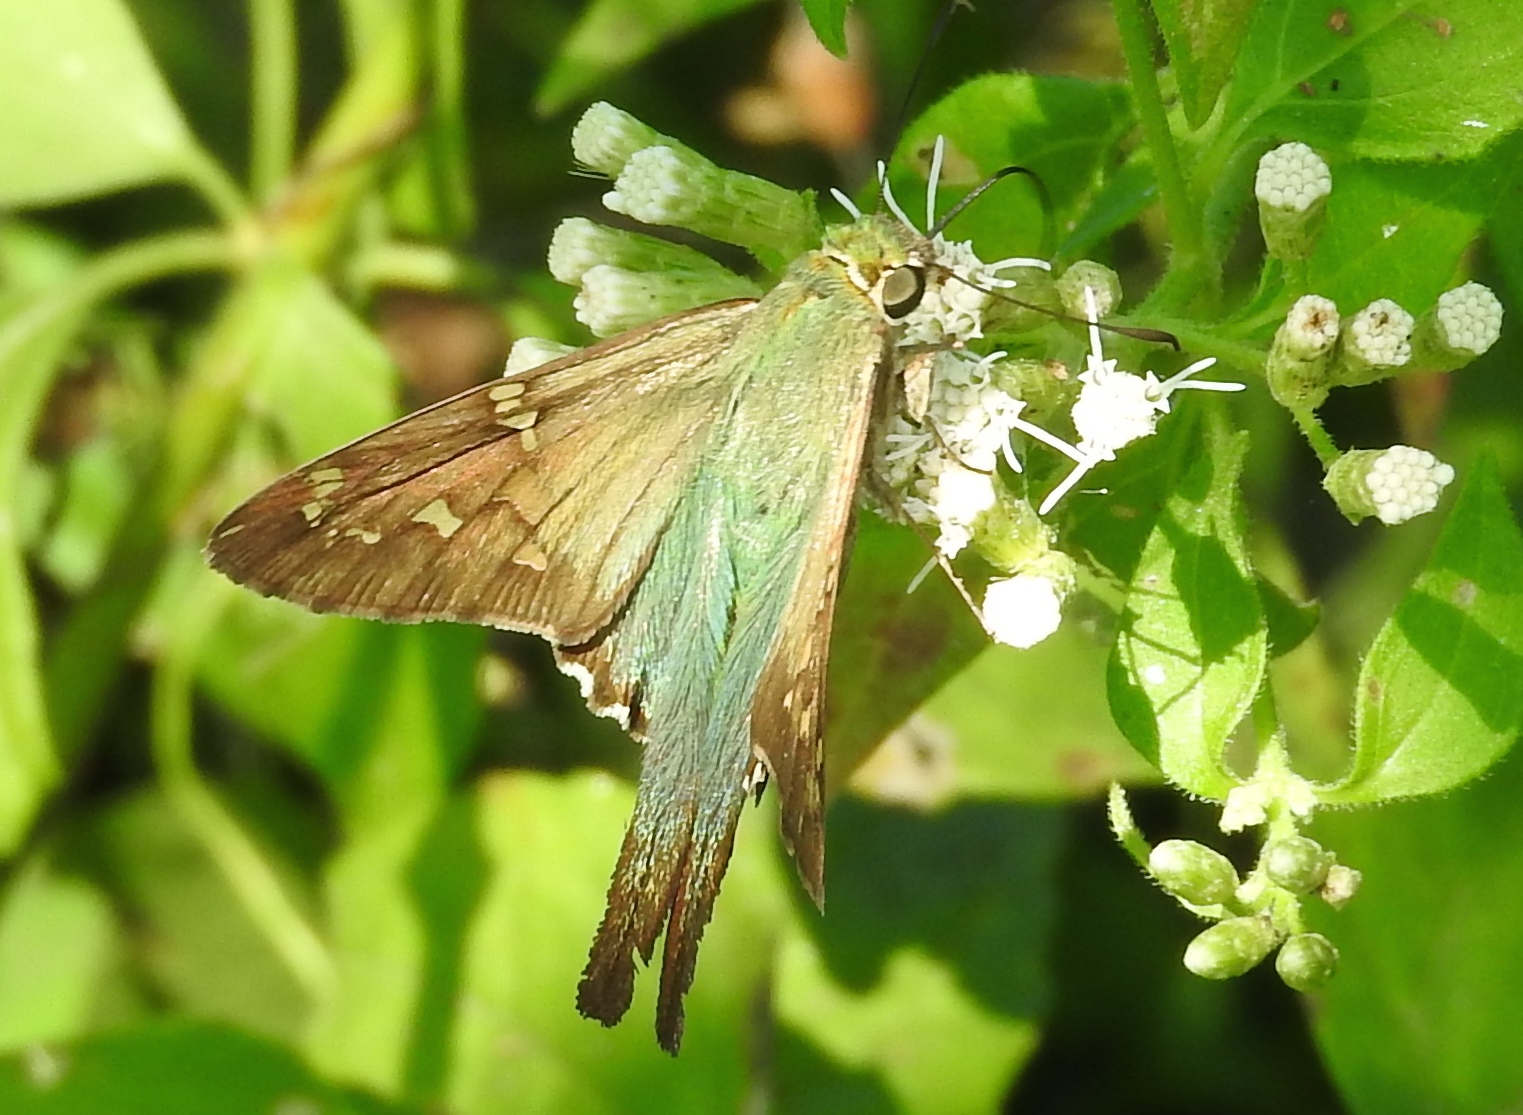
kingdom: Animalia
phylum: Arthropoda
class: Insecta
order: Lepidoptera
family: Hesperiidae
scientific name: Hesperiidae
